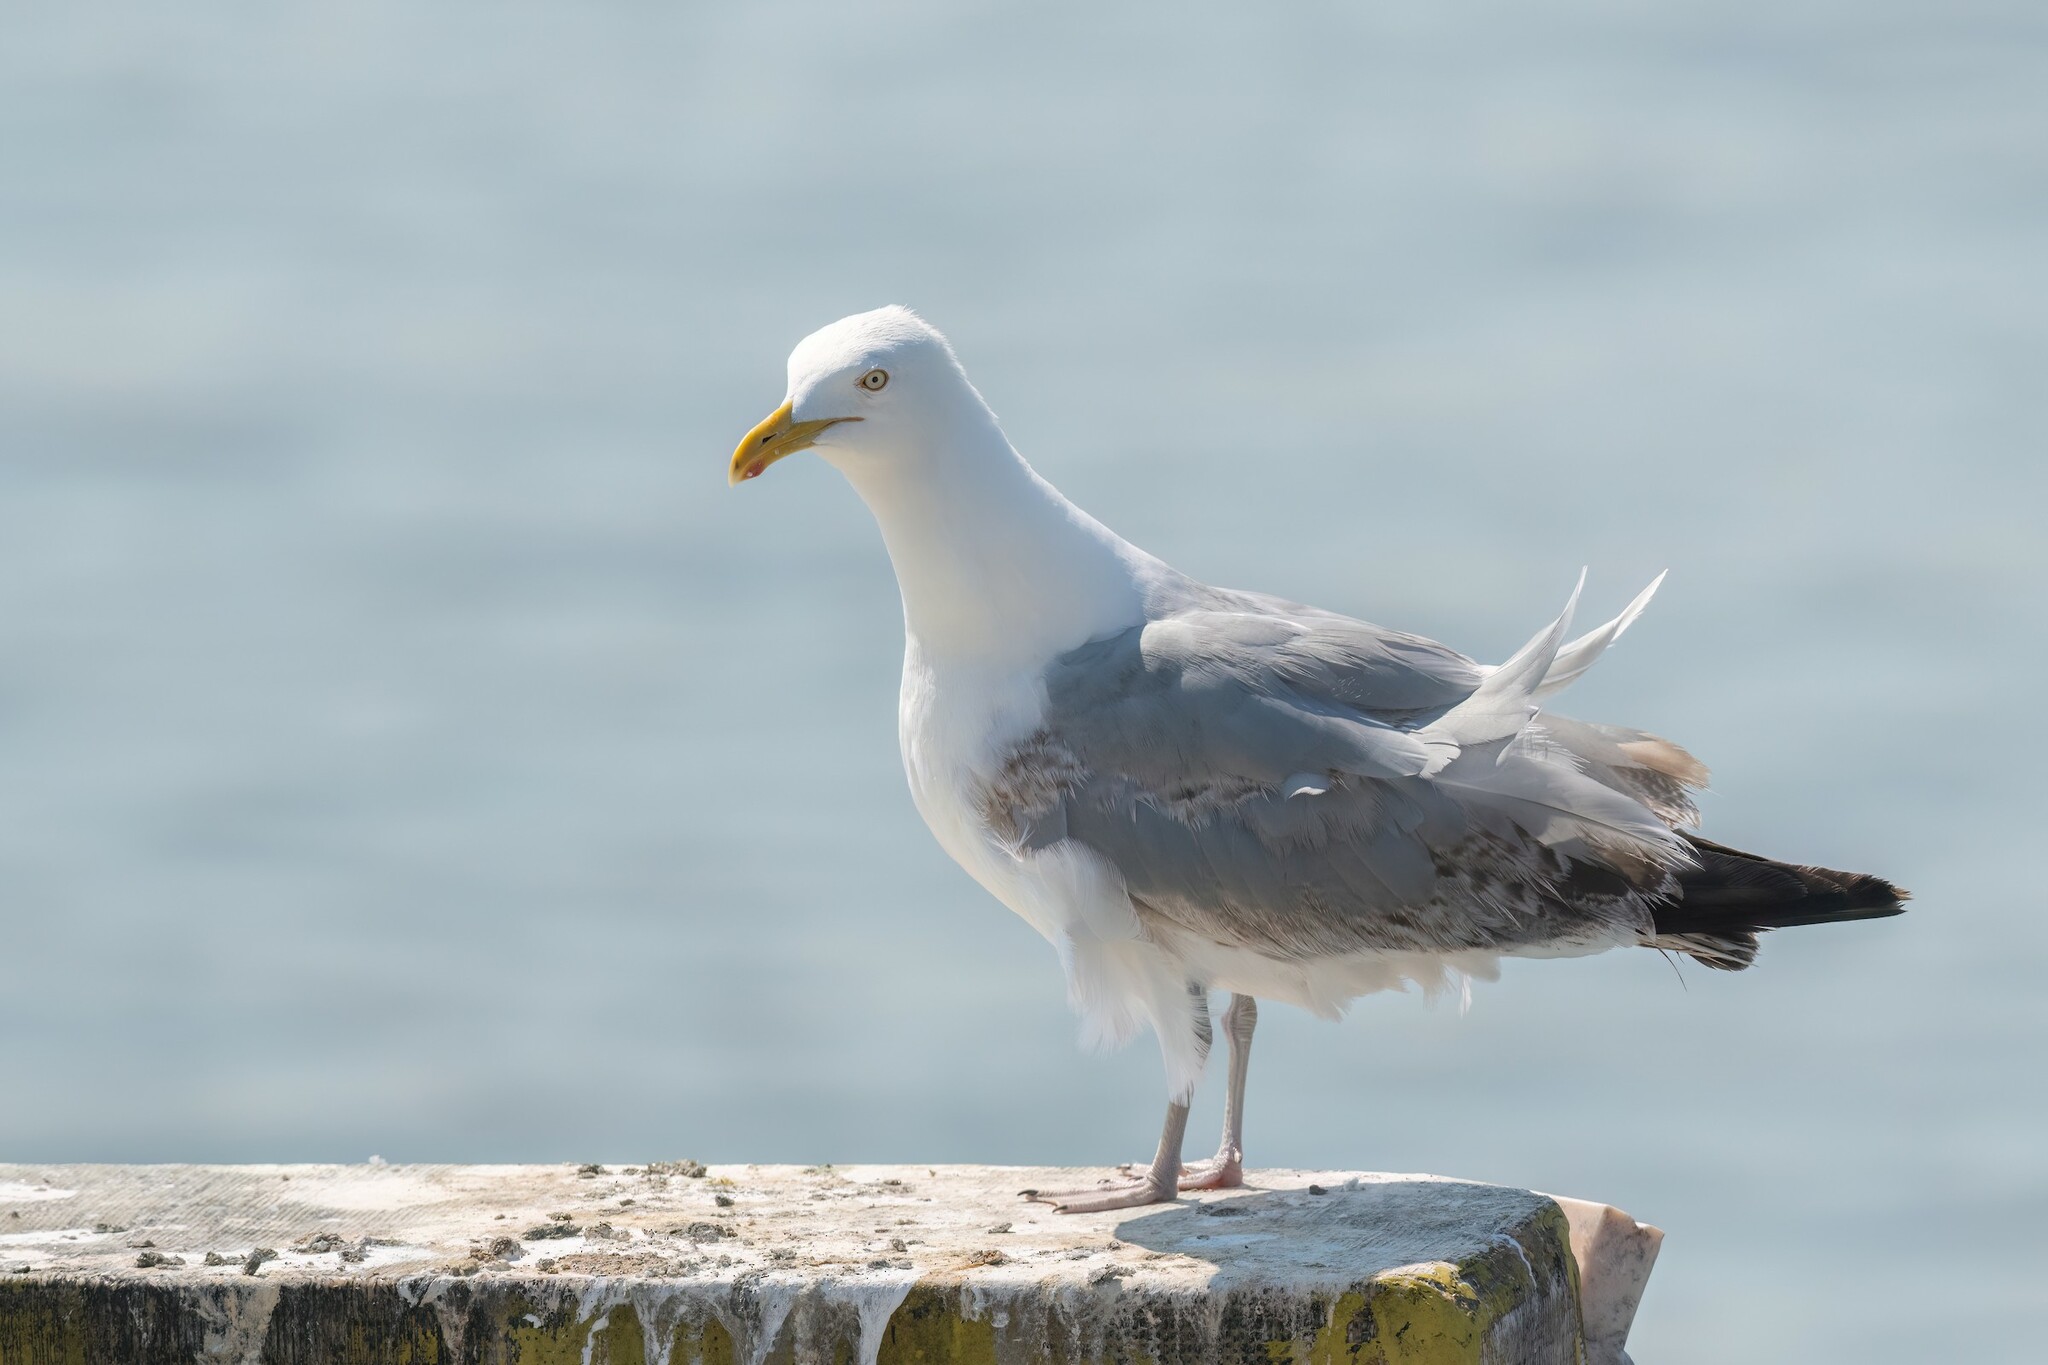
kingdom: Animalia
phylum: Chordata
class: Aves
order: Charadriiformes
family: Laridae
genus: Larus
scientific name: Larus argentatus
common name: Herring gull
